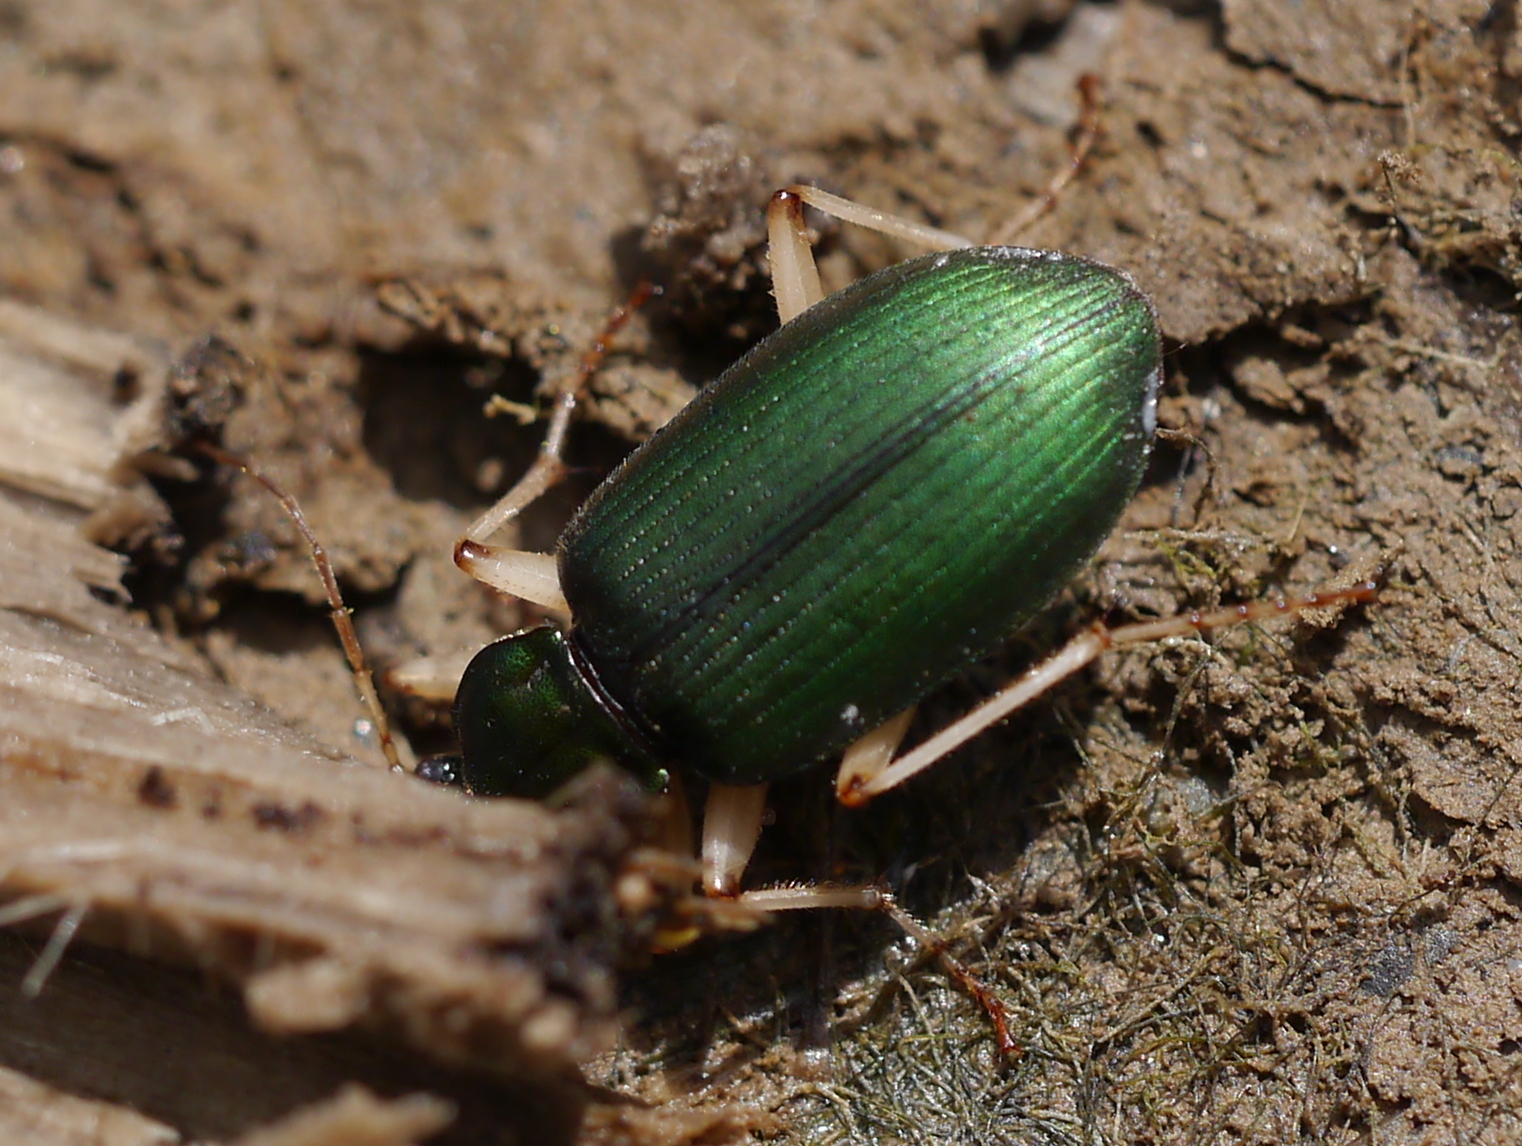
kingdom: Animalia
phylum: Arthropoda
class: Insecta
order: Coleoptera
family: Carabidae
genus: Chlaenius
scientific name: Chlaenius prasinus
